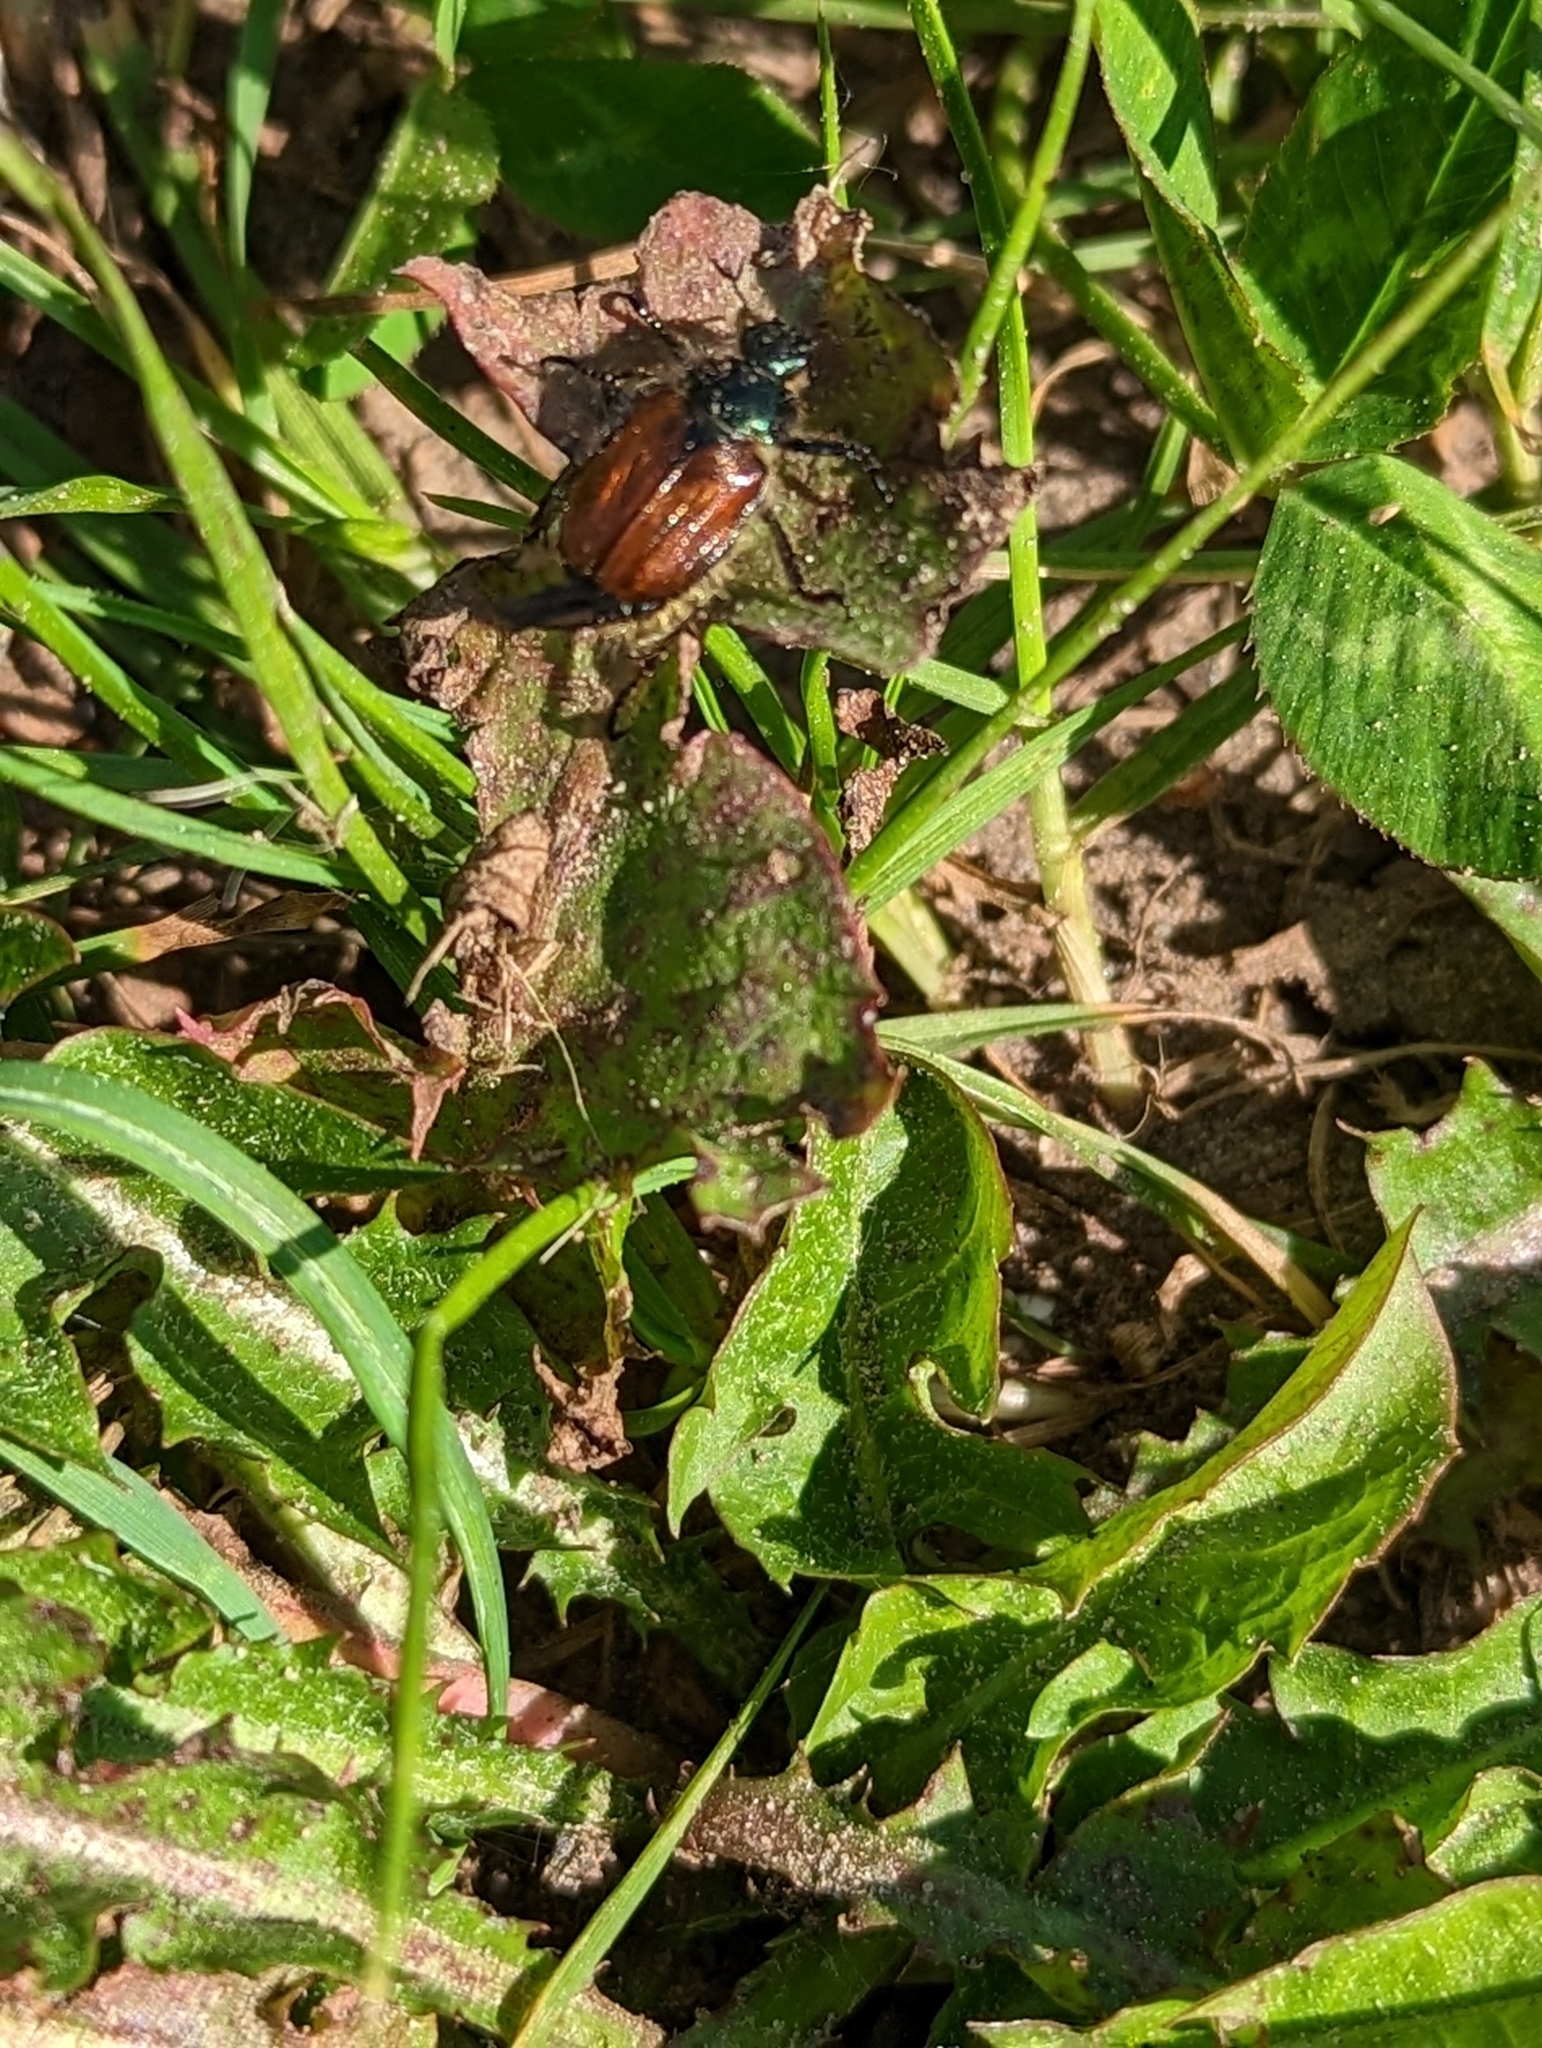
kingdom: Animalia
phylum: Arthropoda
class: Insecta
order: Coleoptera
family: Scarabaeidae
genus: Phyllopertha
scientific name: Phyllopertha horticola
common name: Garden chafer
